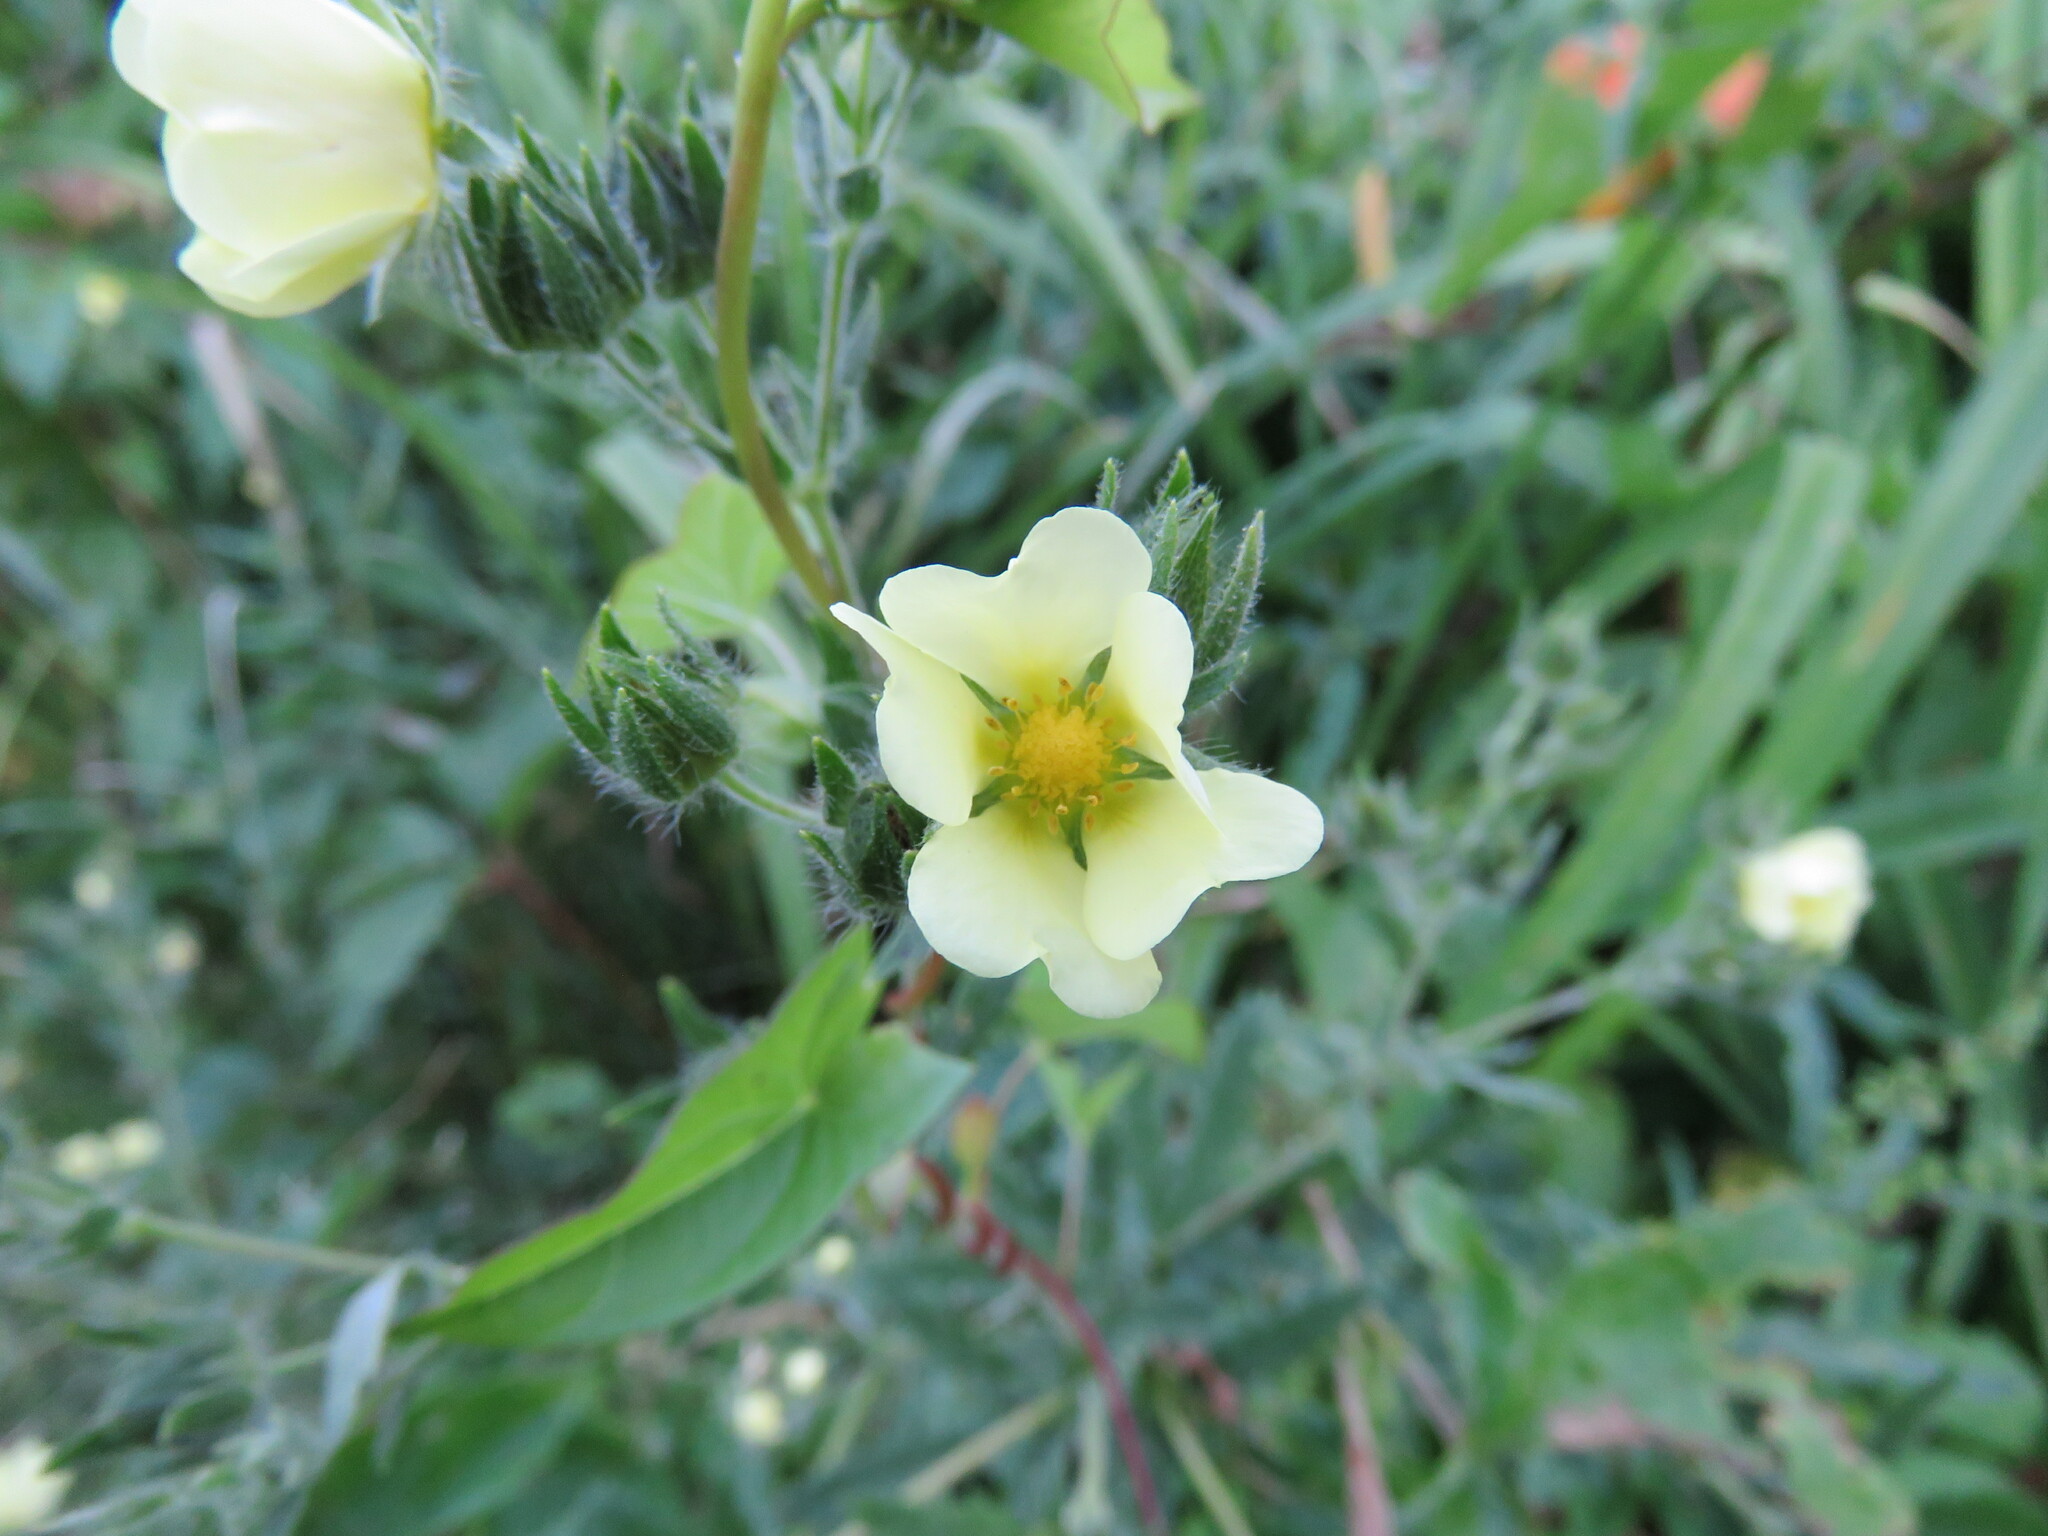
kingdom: Plantae
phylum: Tracheophyta
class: Magnoliopsida
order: Rosales
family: Rosaceae
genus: Potentilla
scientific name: Potentilla recta
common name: Sulphur cinquefoil
